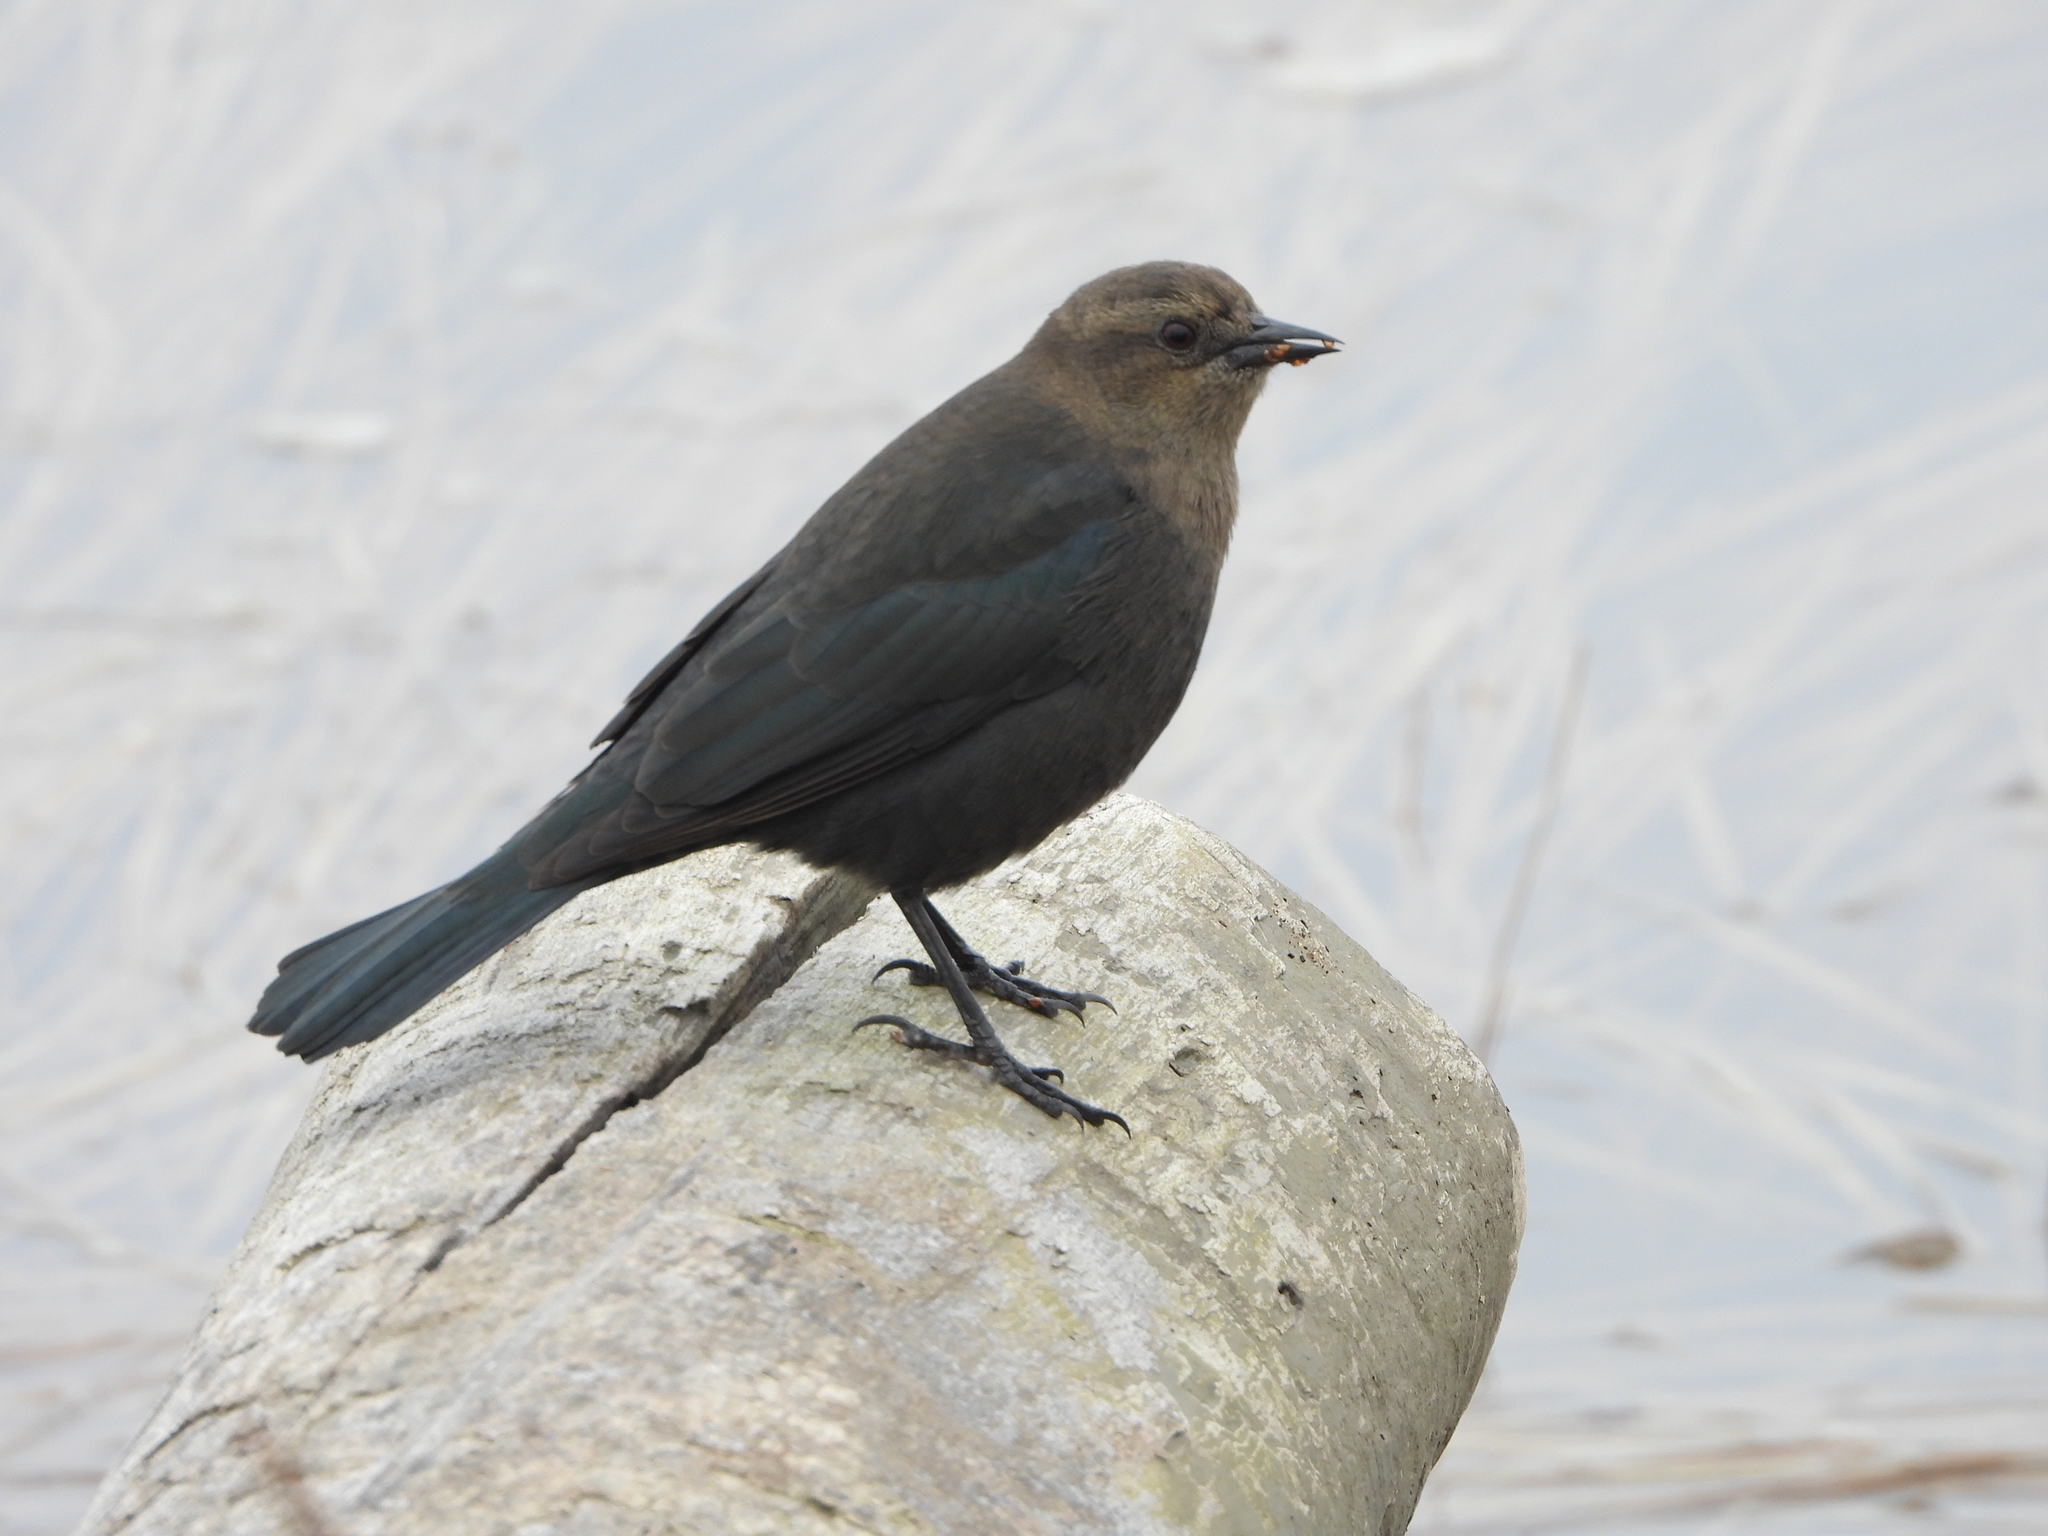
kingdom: Animalia
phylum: Chordata
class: Aves
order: Passeriformes
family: Icteridae
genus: Euphagus
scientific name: Euphagus cyanocephalus
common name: Brewer's blackbird
